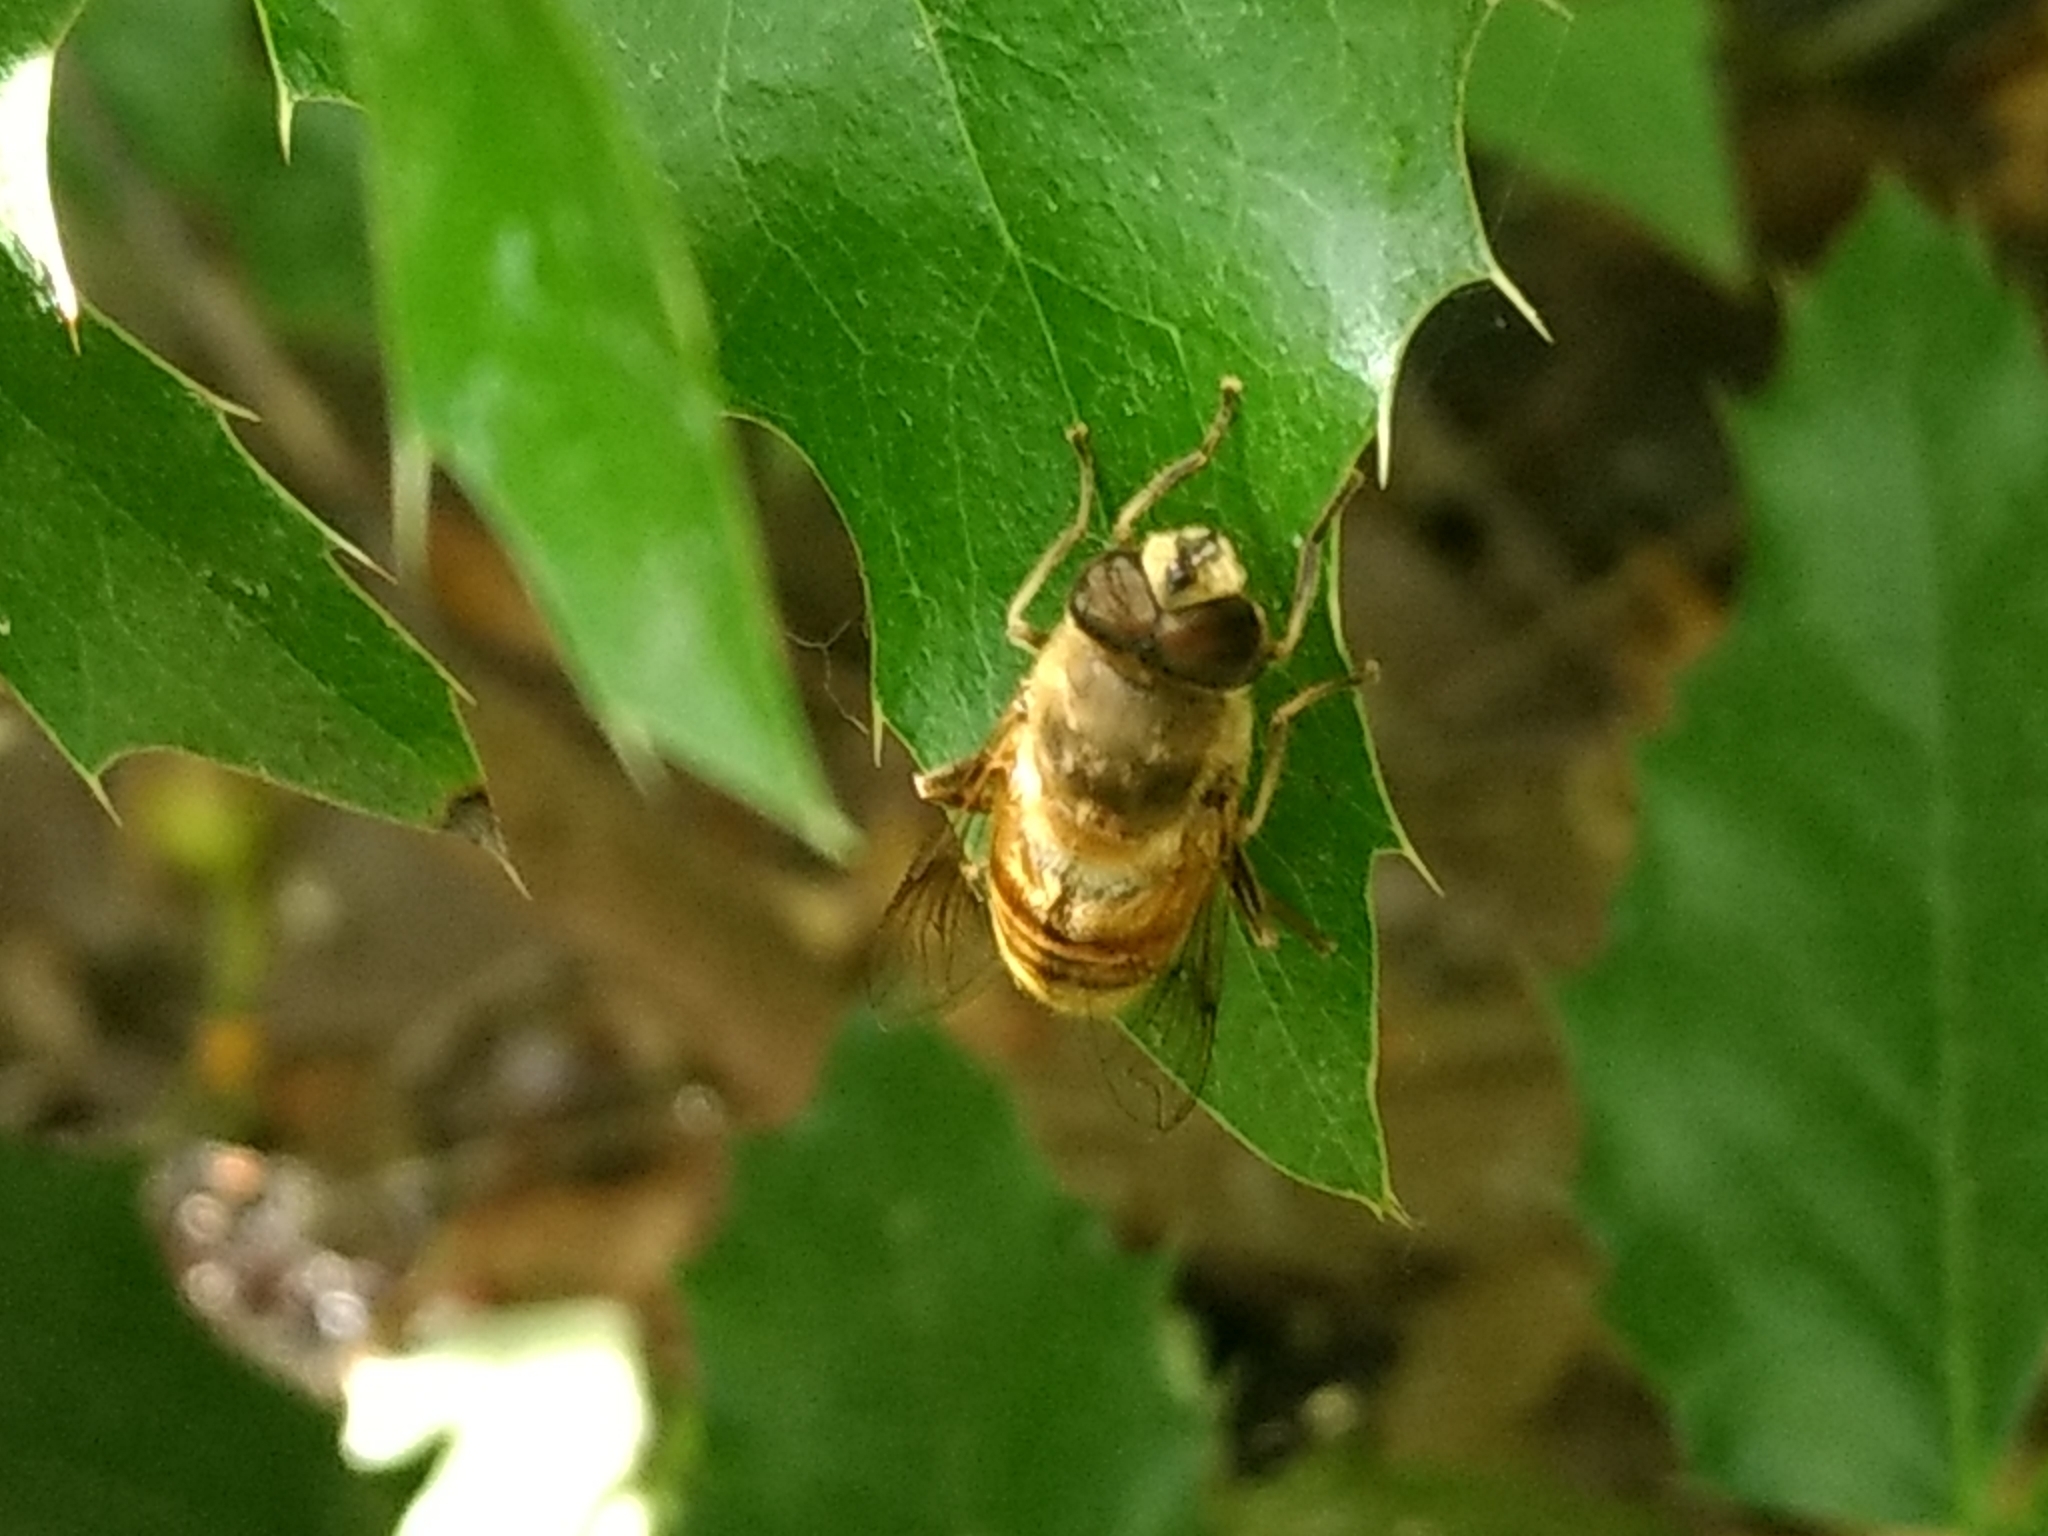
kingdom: Animalia
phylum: Arthropoda
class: Insecta
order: Diptera
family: Syrphidae
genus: Eristalis
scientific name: Eristalis tenax
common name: Drone fly
